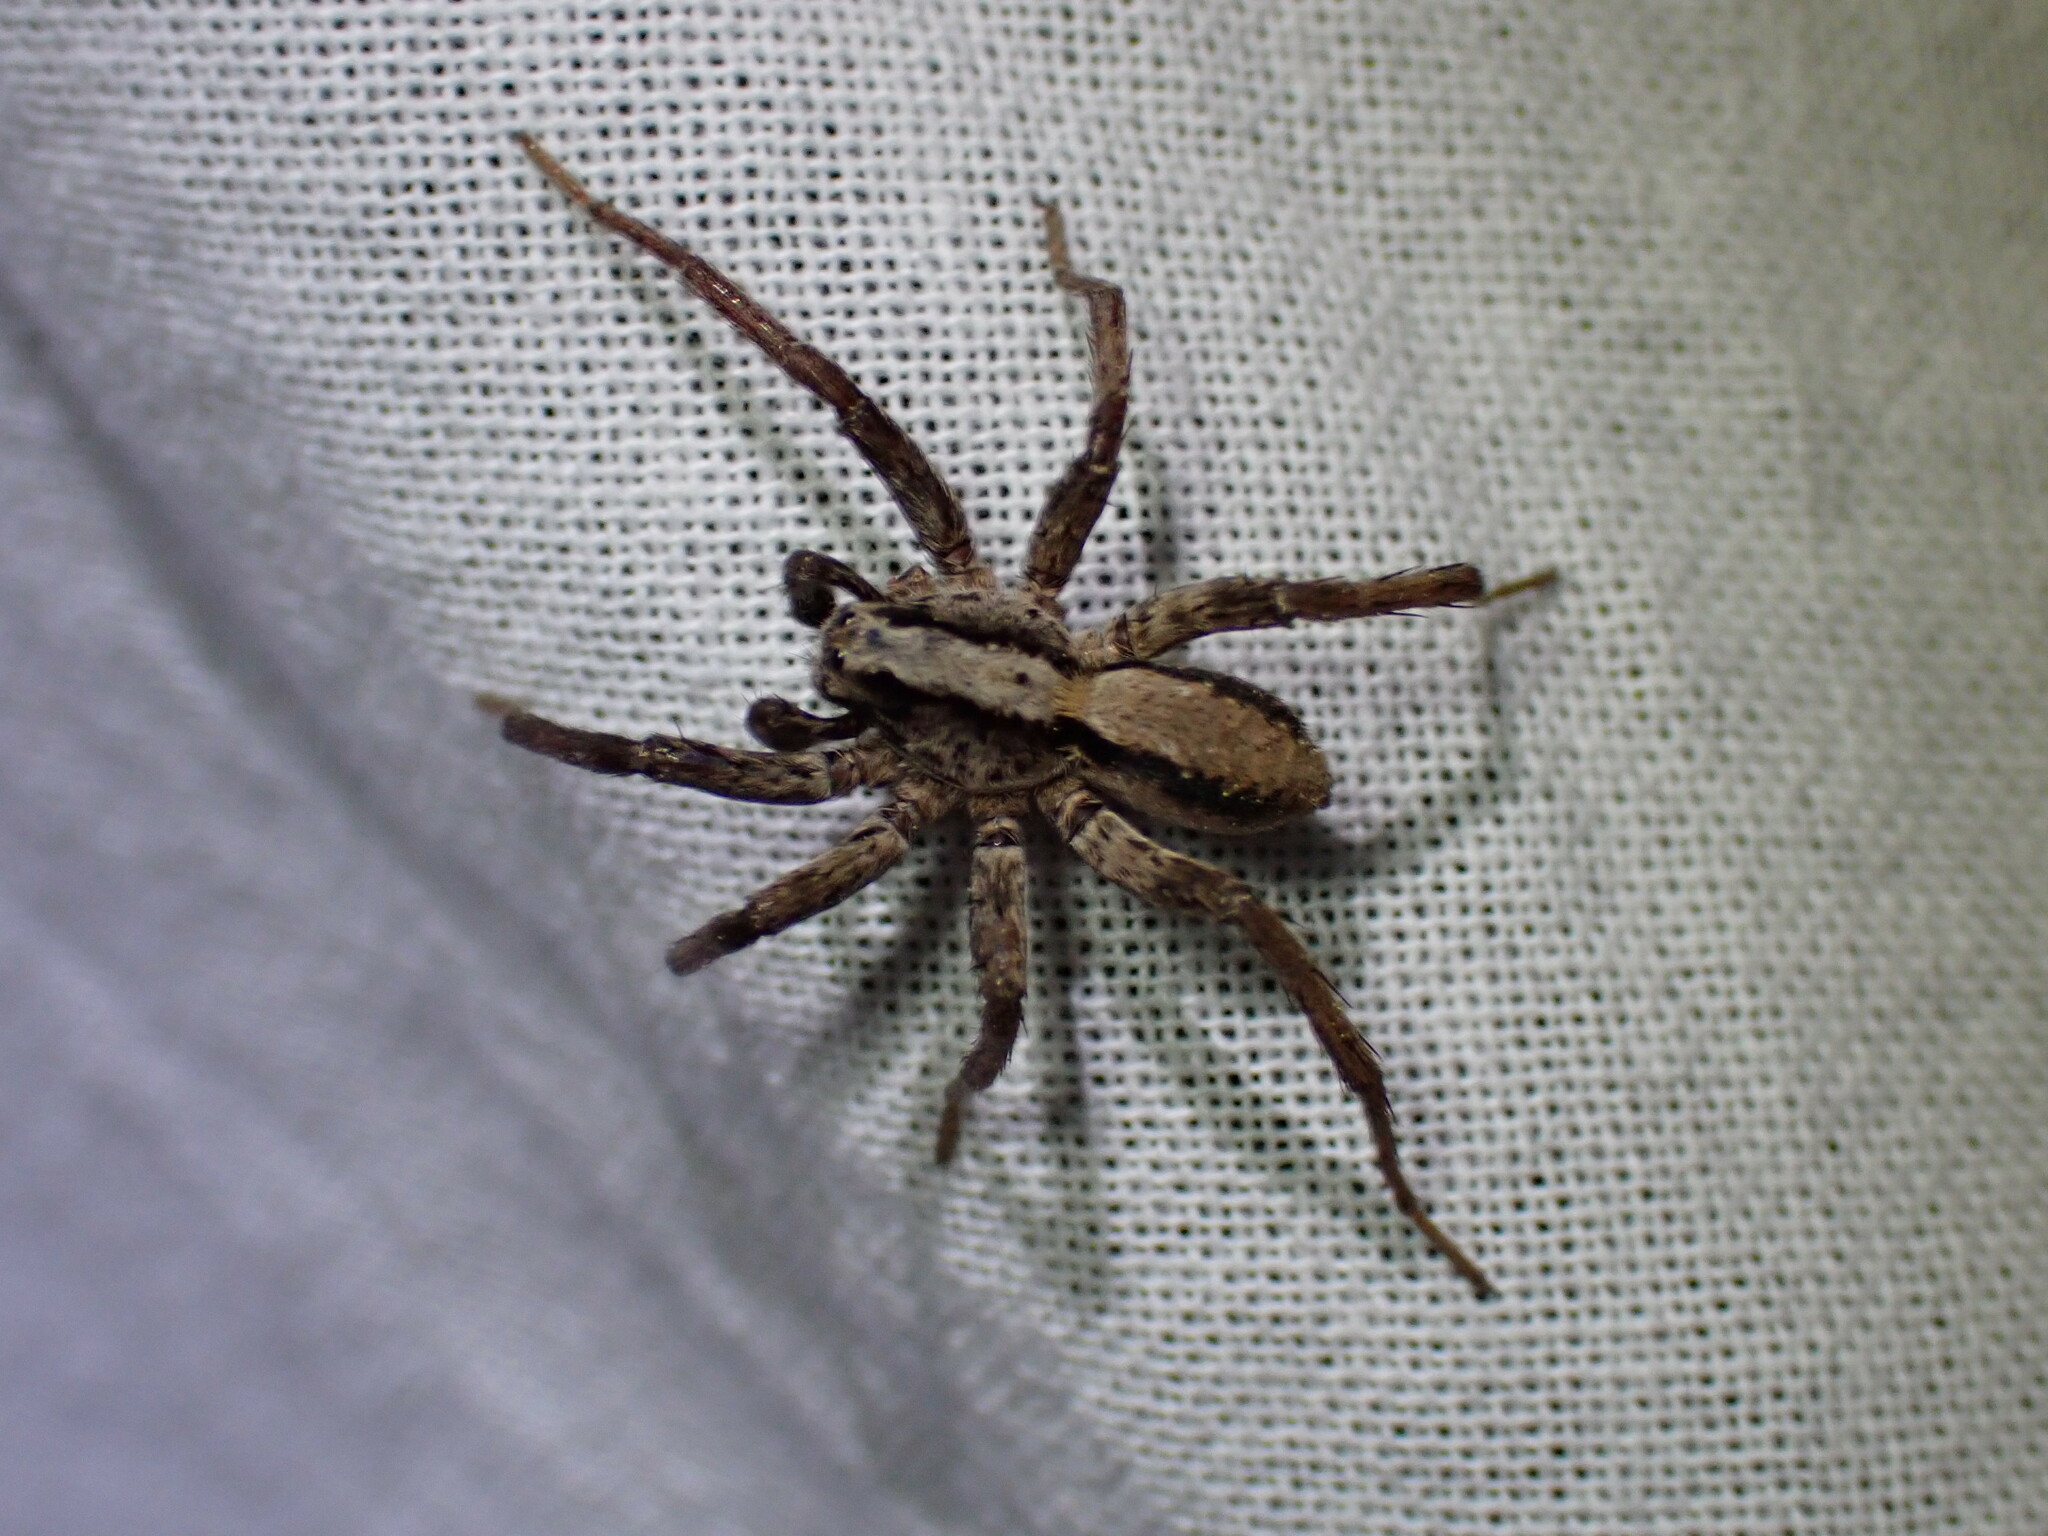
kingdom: Animalia
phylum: Arthropoda
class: Arachnida
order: Araneae
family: Lycosidae
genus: Alopecosa
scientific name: Alopecosa kochi
